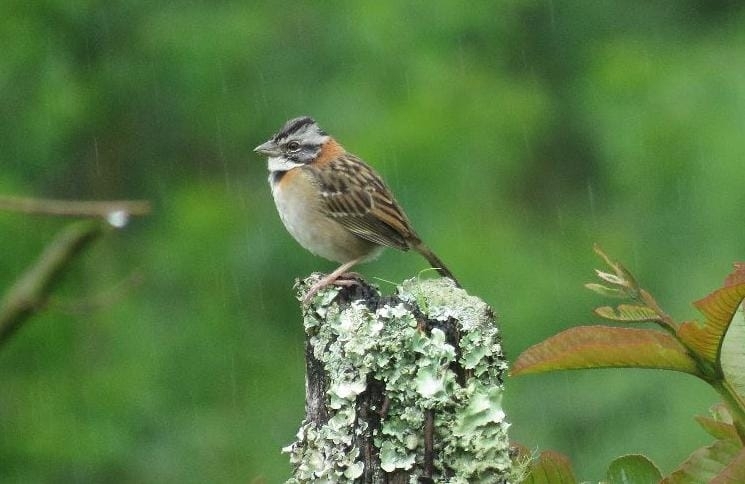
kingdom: Animalia
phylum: Chordata
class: Aves
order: Passeriformes
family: Passerellidae
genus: Zonotrichia
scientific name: Zonotrichia capensis
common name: Rufous-collared sparrow
